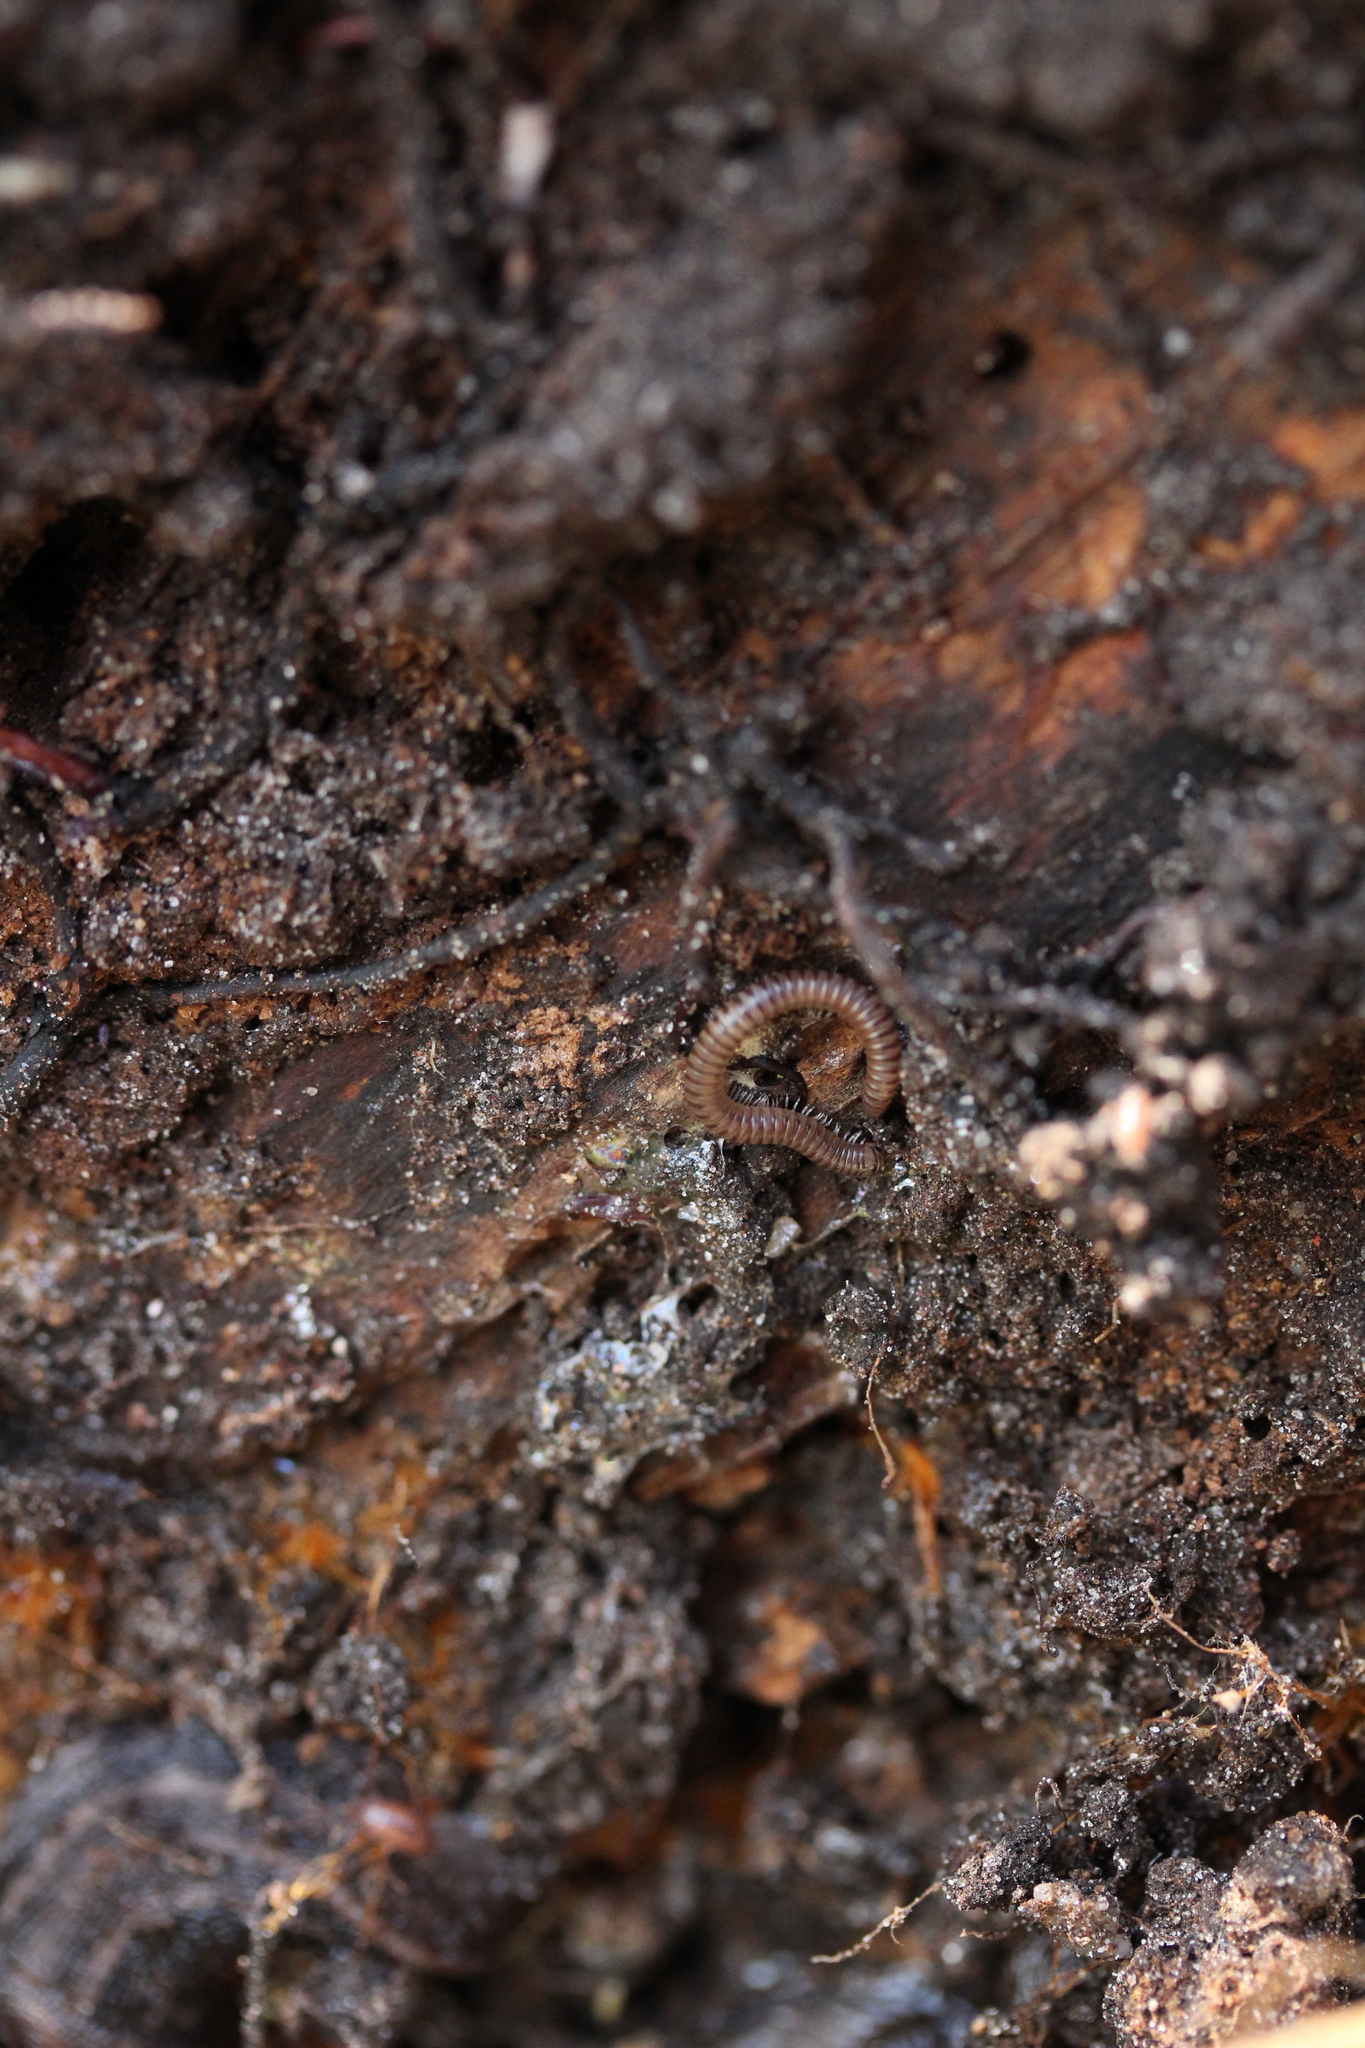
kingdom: Animalia
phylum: Arthropoda
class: Diplopoda
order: Julida
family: Julidae
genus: Cylindroiulus
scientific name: Cylindroiulus punctatus
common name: Blunt-tailed millipede
